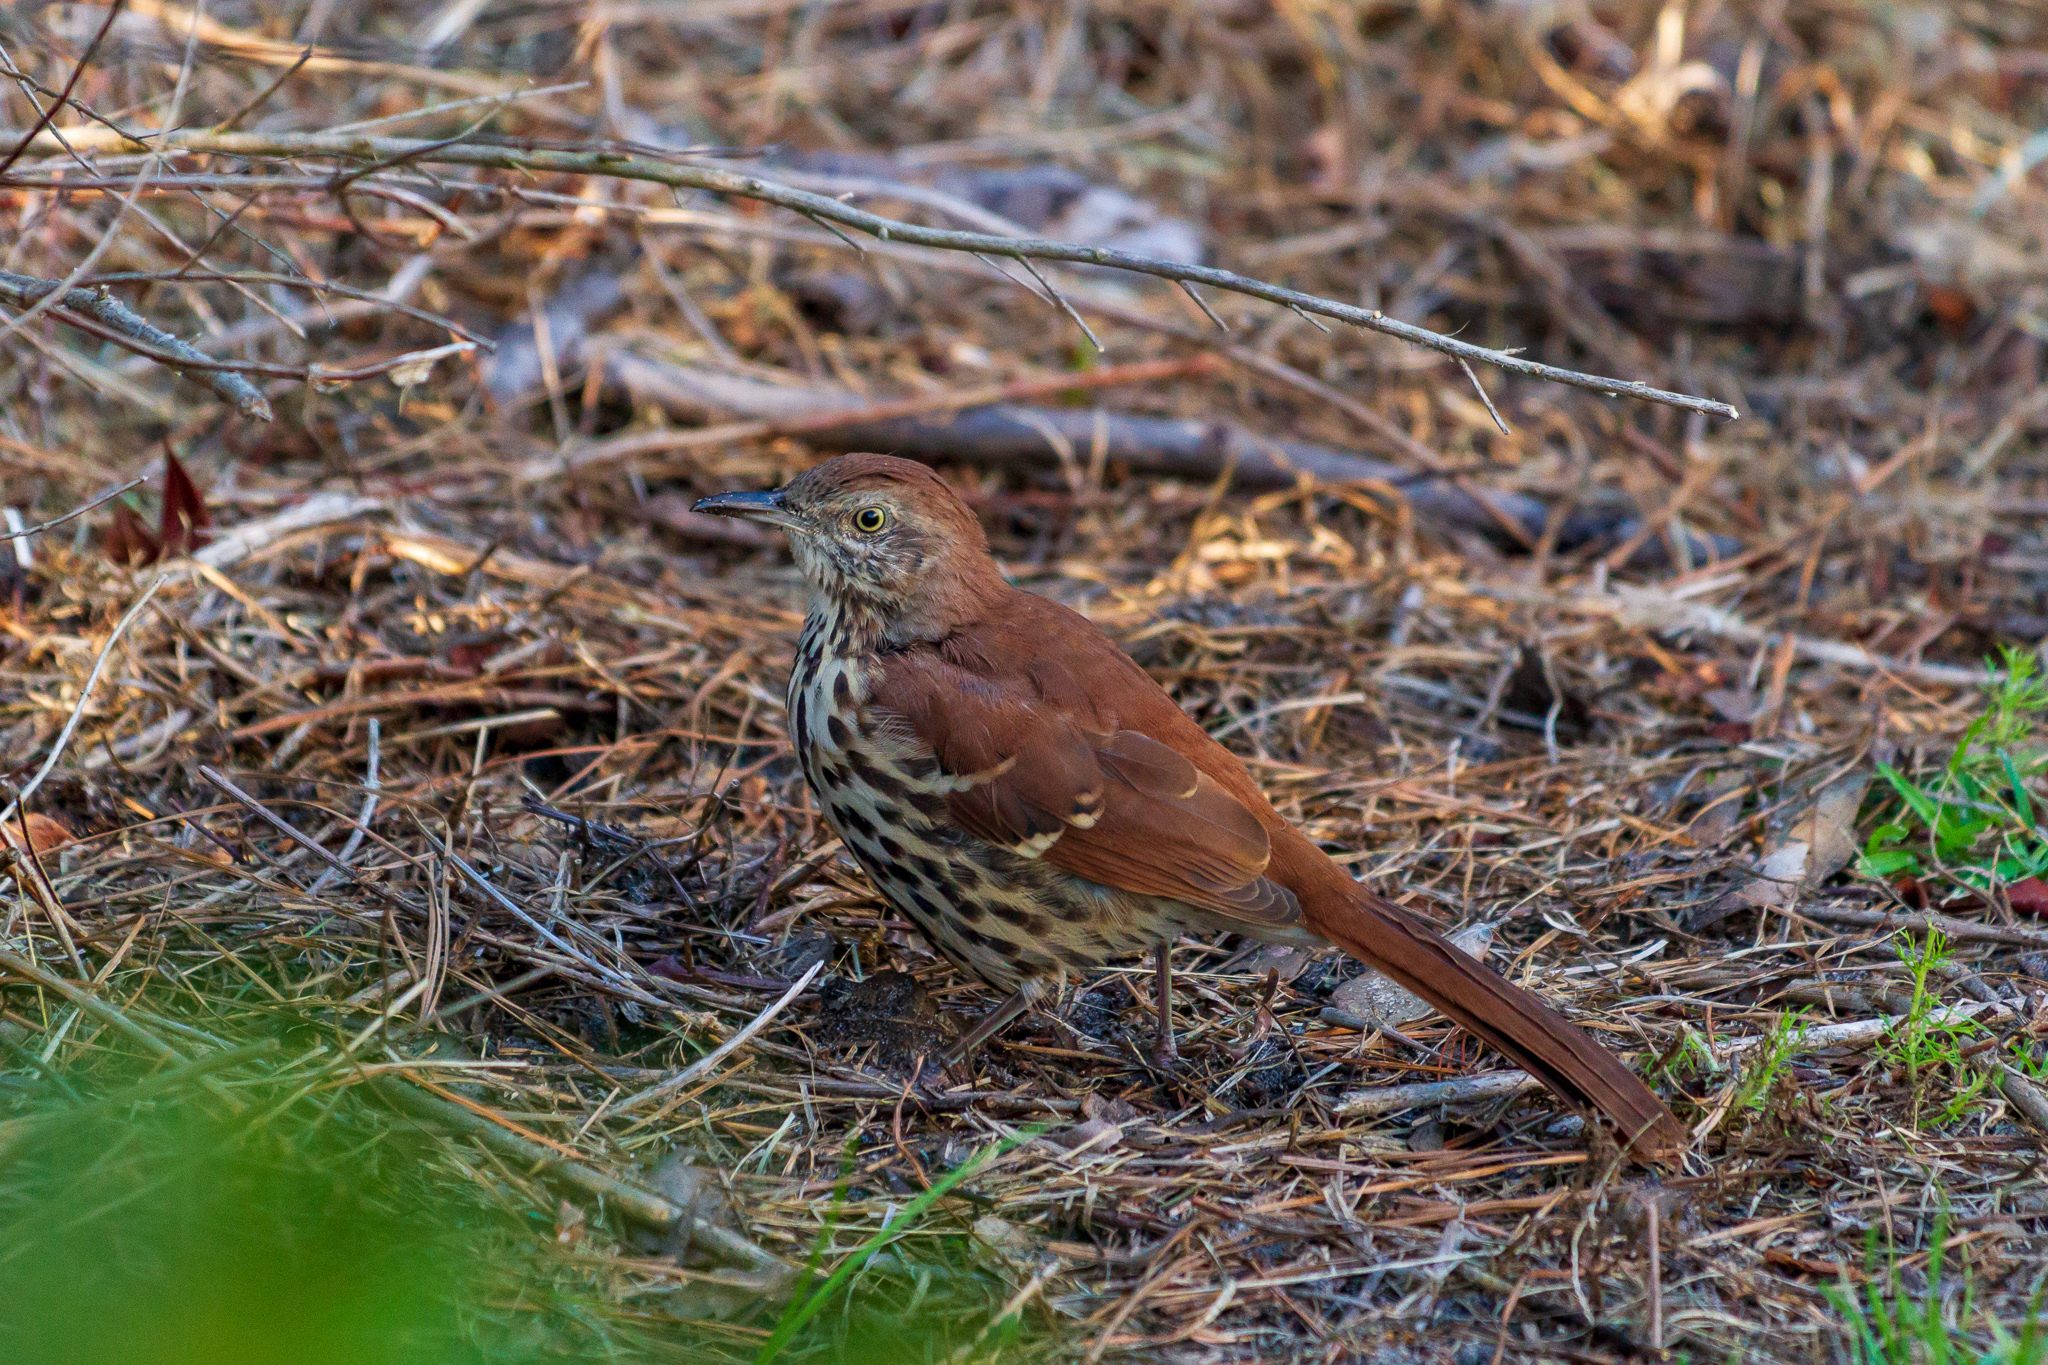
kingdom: Animalia
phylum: Chordata
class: Aves
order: Passeriformes
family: Mimidae
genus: Toxostoma
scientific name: Toxostoma rufum
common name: Brown thrasher
